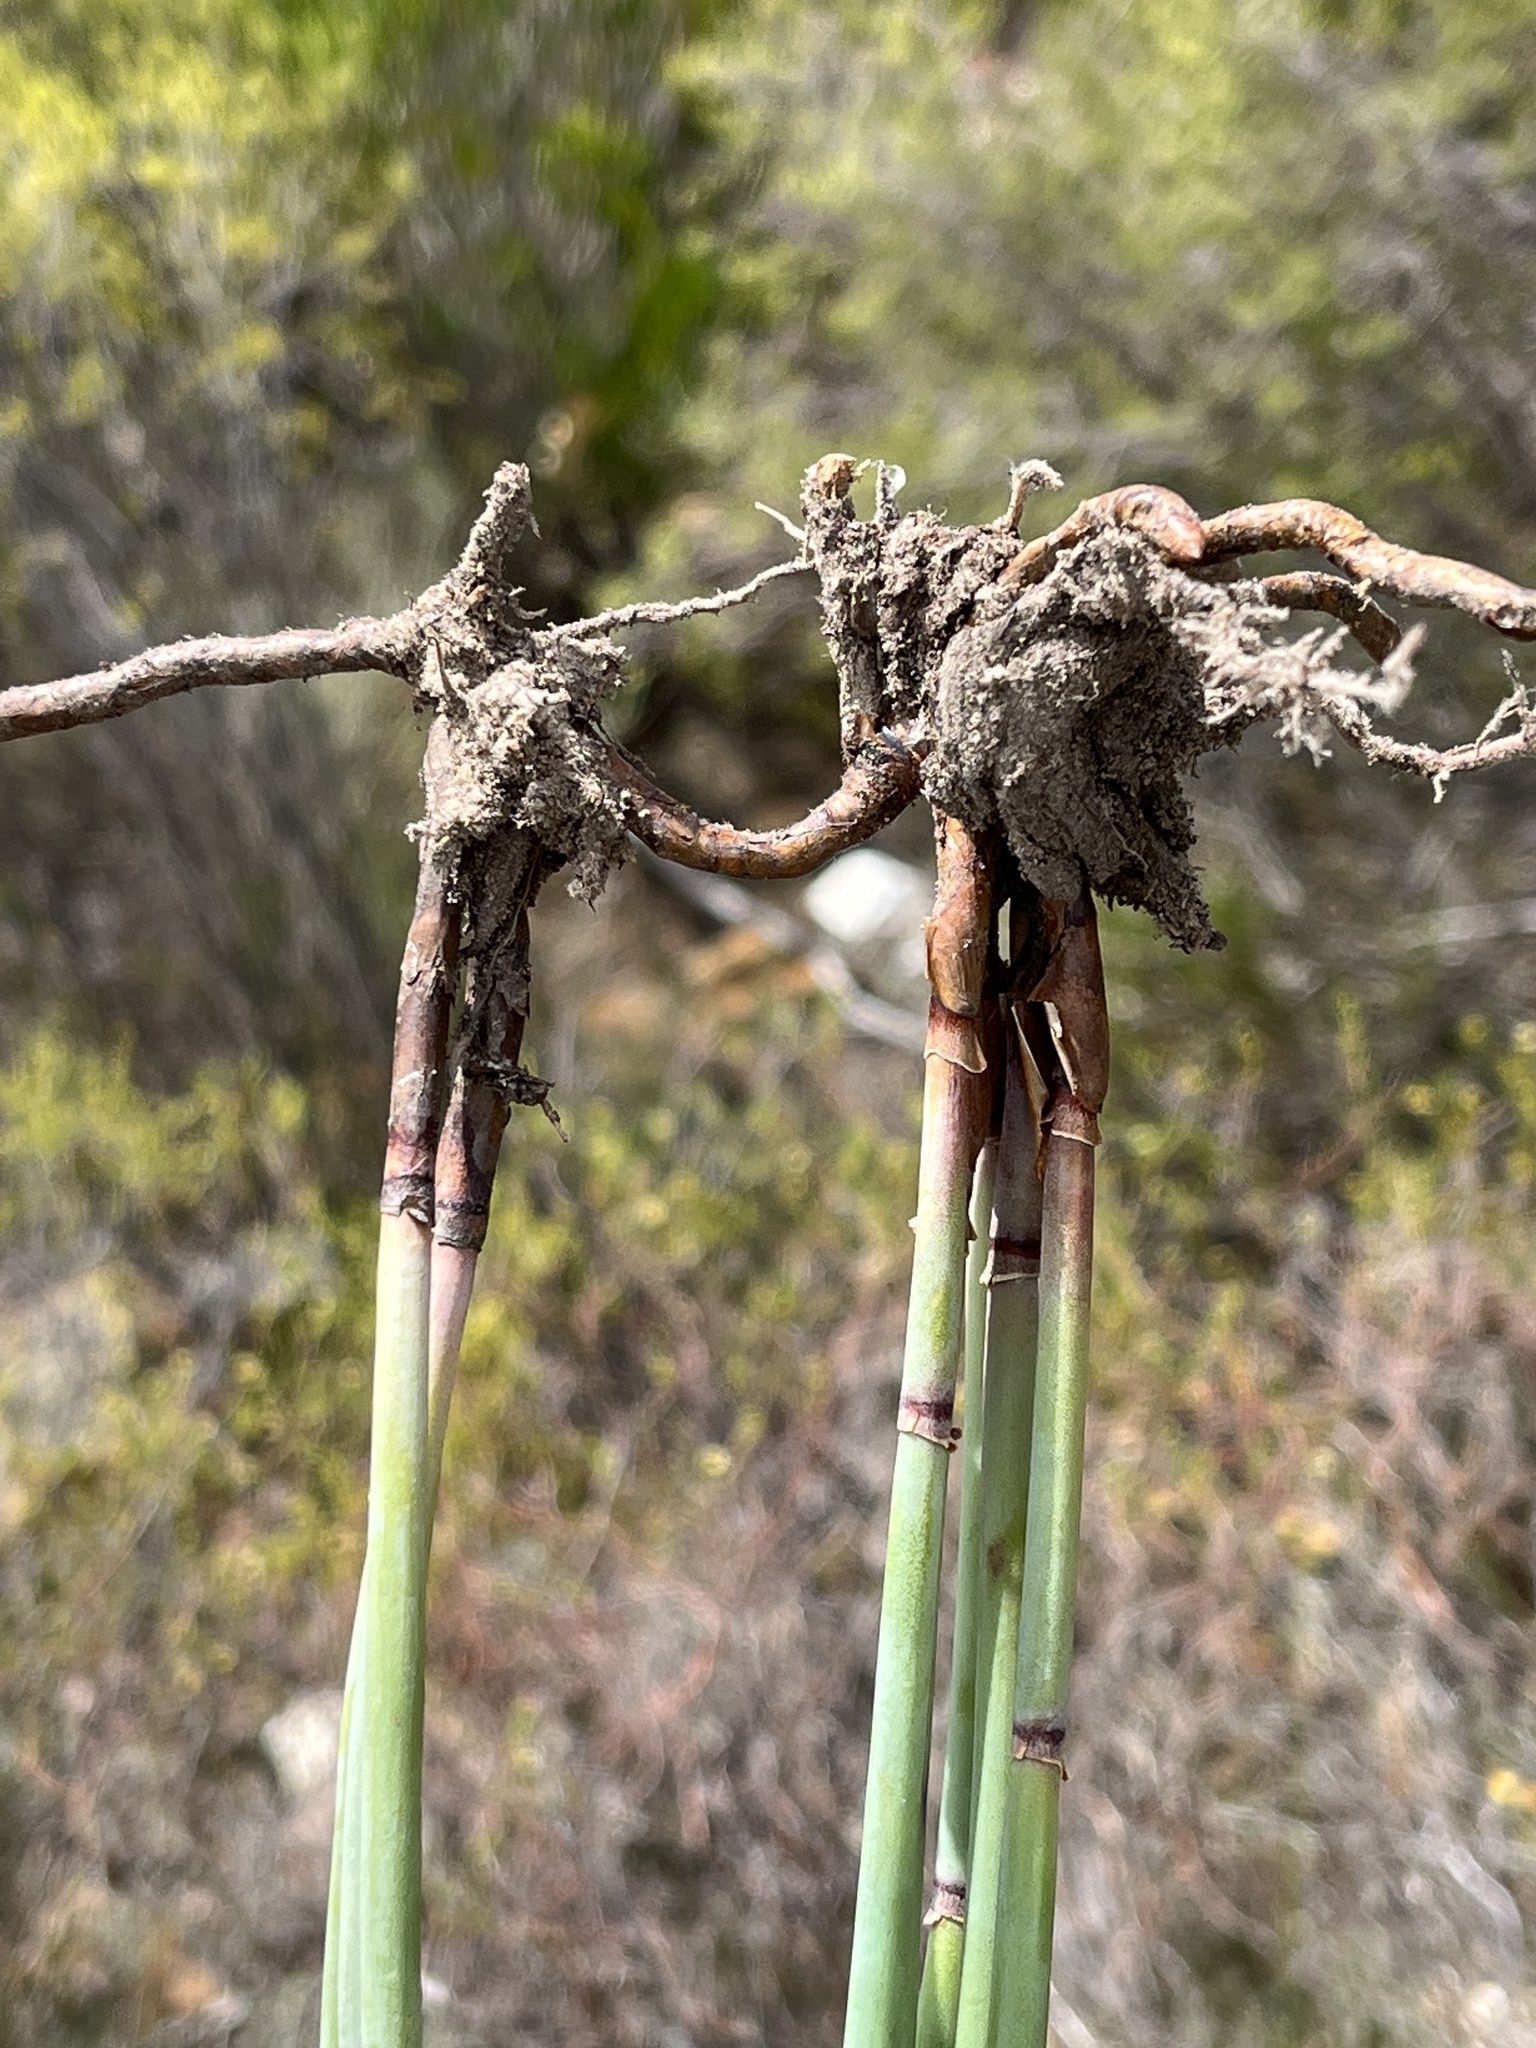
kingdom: Plantae
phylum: Tracheophyta
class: Liliopsida
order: Poales
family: Restionaceae
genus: Elegia
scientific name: Elegia galpinii
